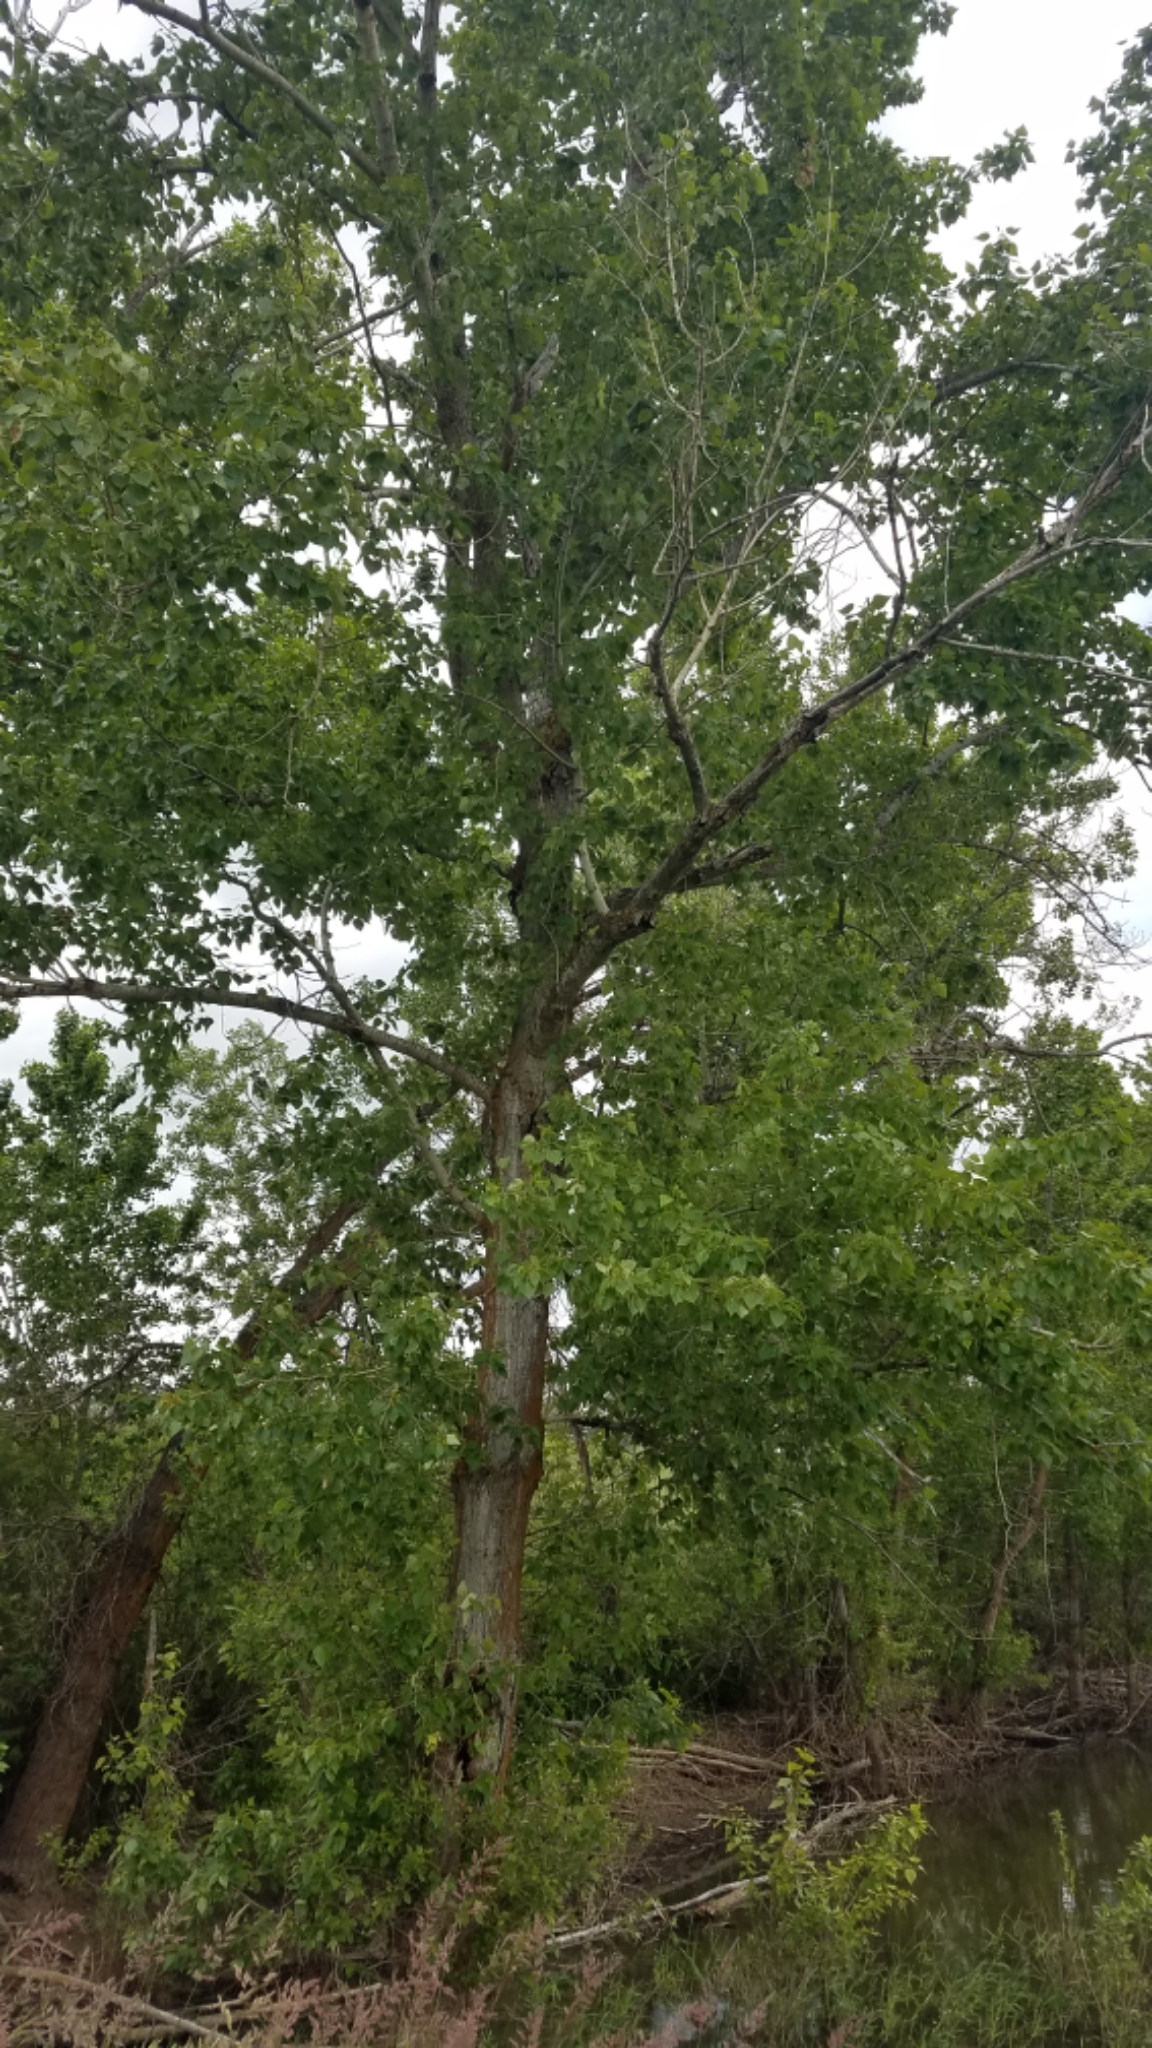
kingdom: Plantae
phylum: Tracheophyta
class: Magnoliopsida
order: Malpighiales
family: Salicaceae
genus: Populus
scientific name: Populus trichocarpa
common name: Black cottonwood
